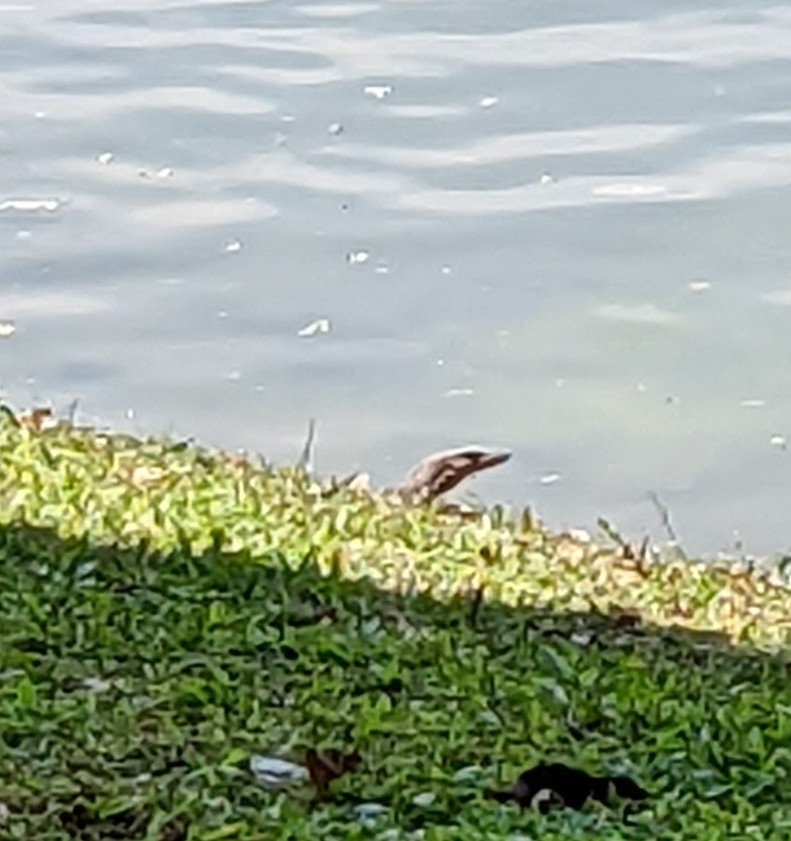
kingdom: Animalia
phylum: Chordata
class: Squamata
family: Varanidae
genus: Varanus
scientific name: Varanus salvator
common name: Common water monitor
